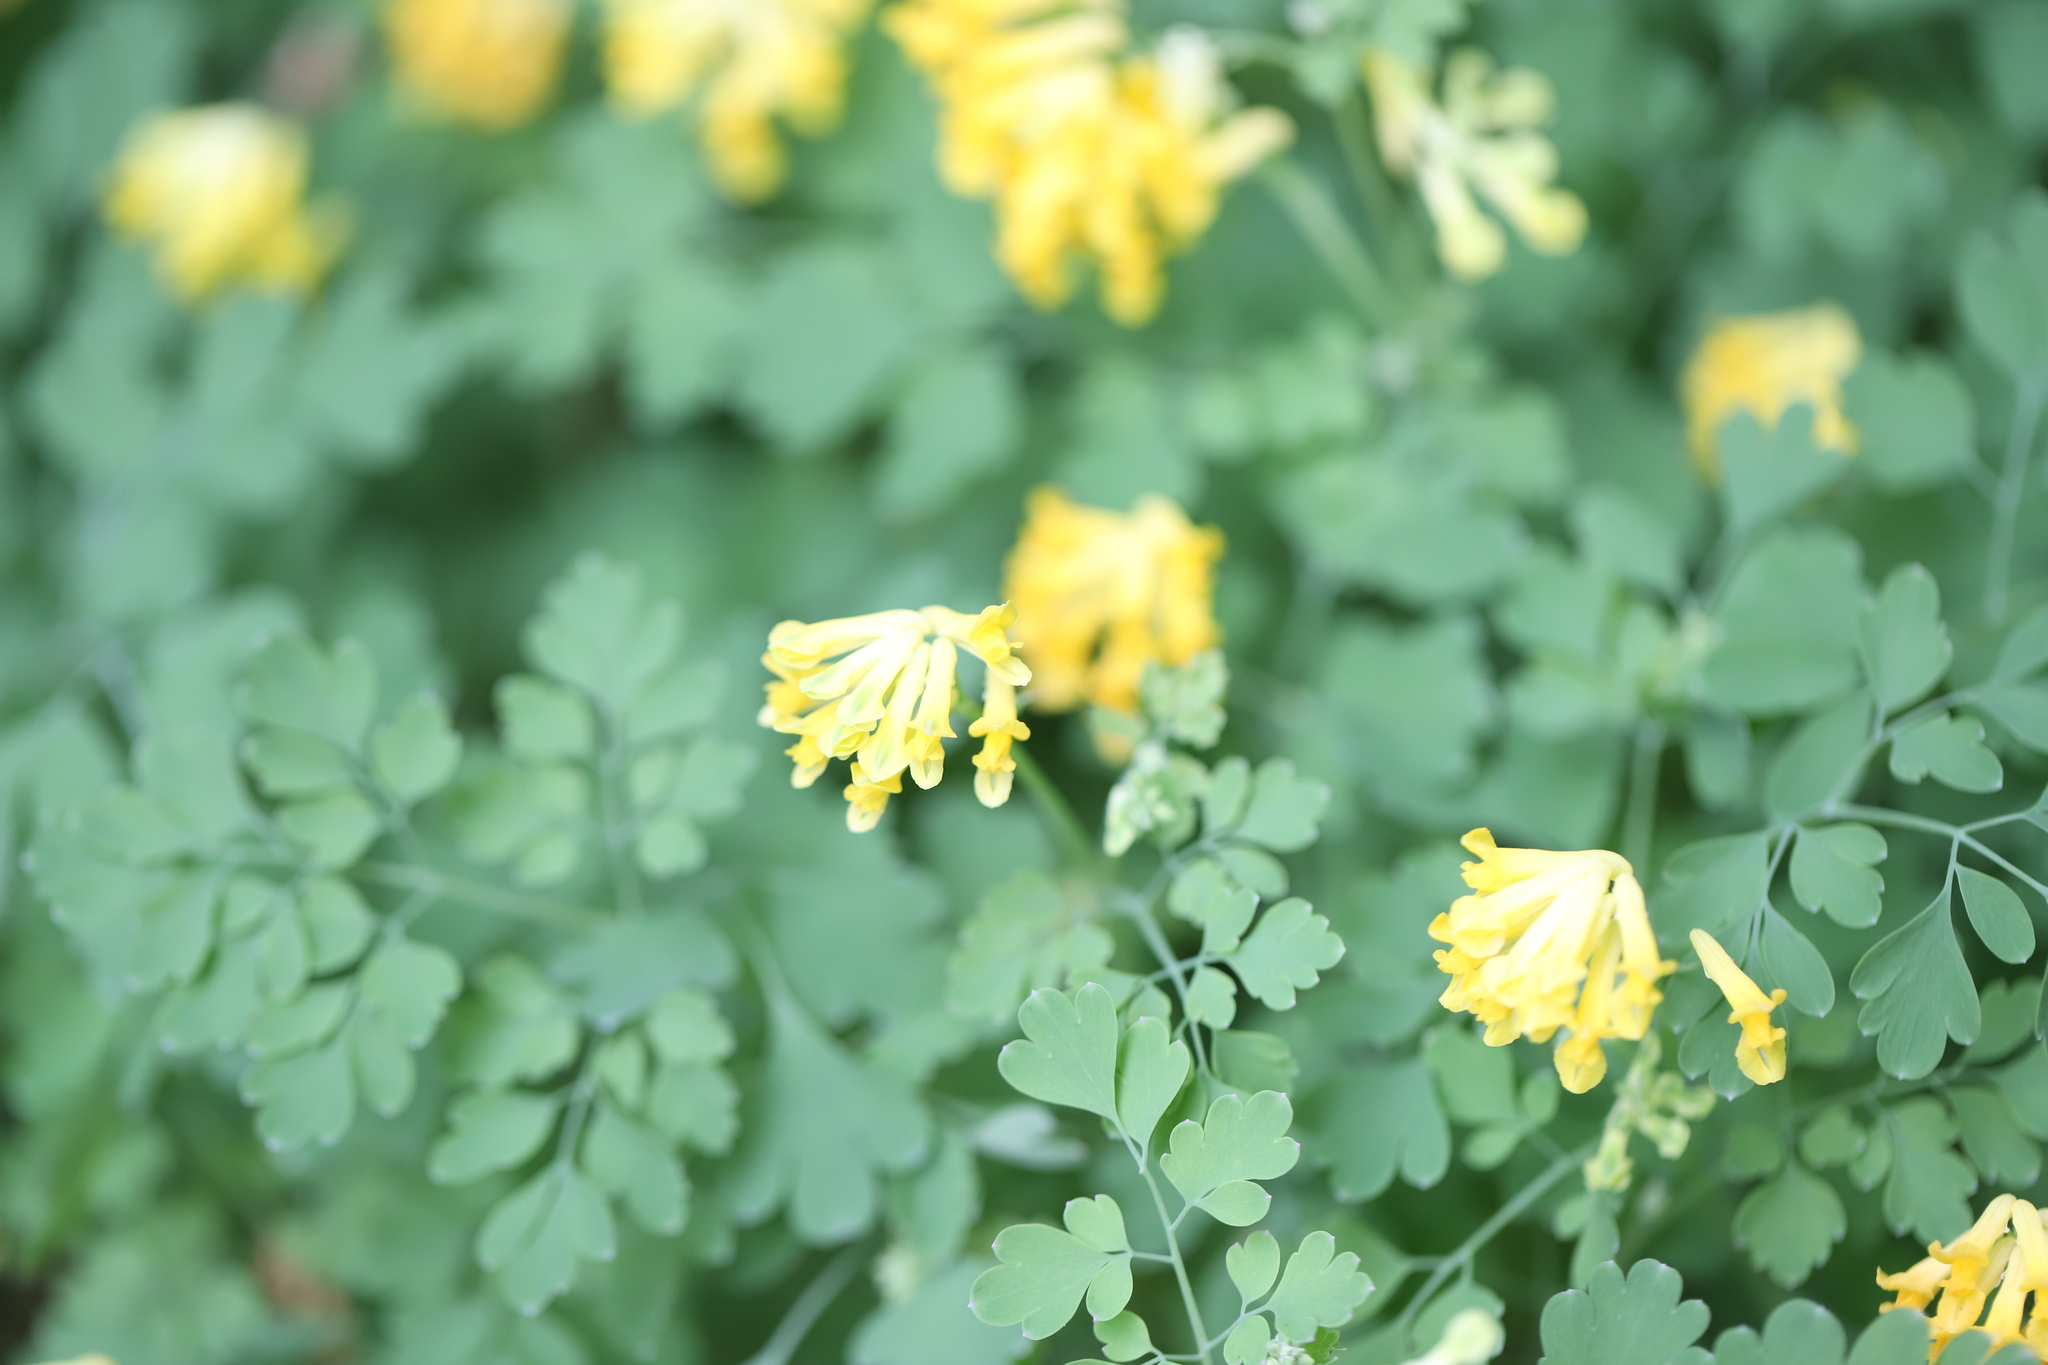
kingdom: Plantae
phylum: Tracheophyta
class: Magnoliopsida
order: Ranunculales
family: Papaveraceae
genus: Pseudofumaria
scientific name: Pseudofumaria lutea
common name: Yellow corydalis
